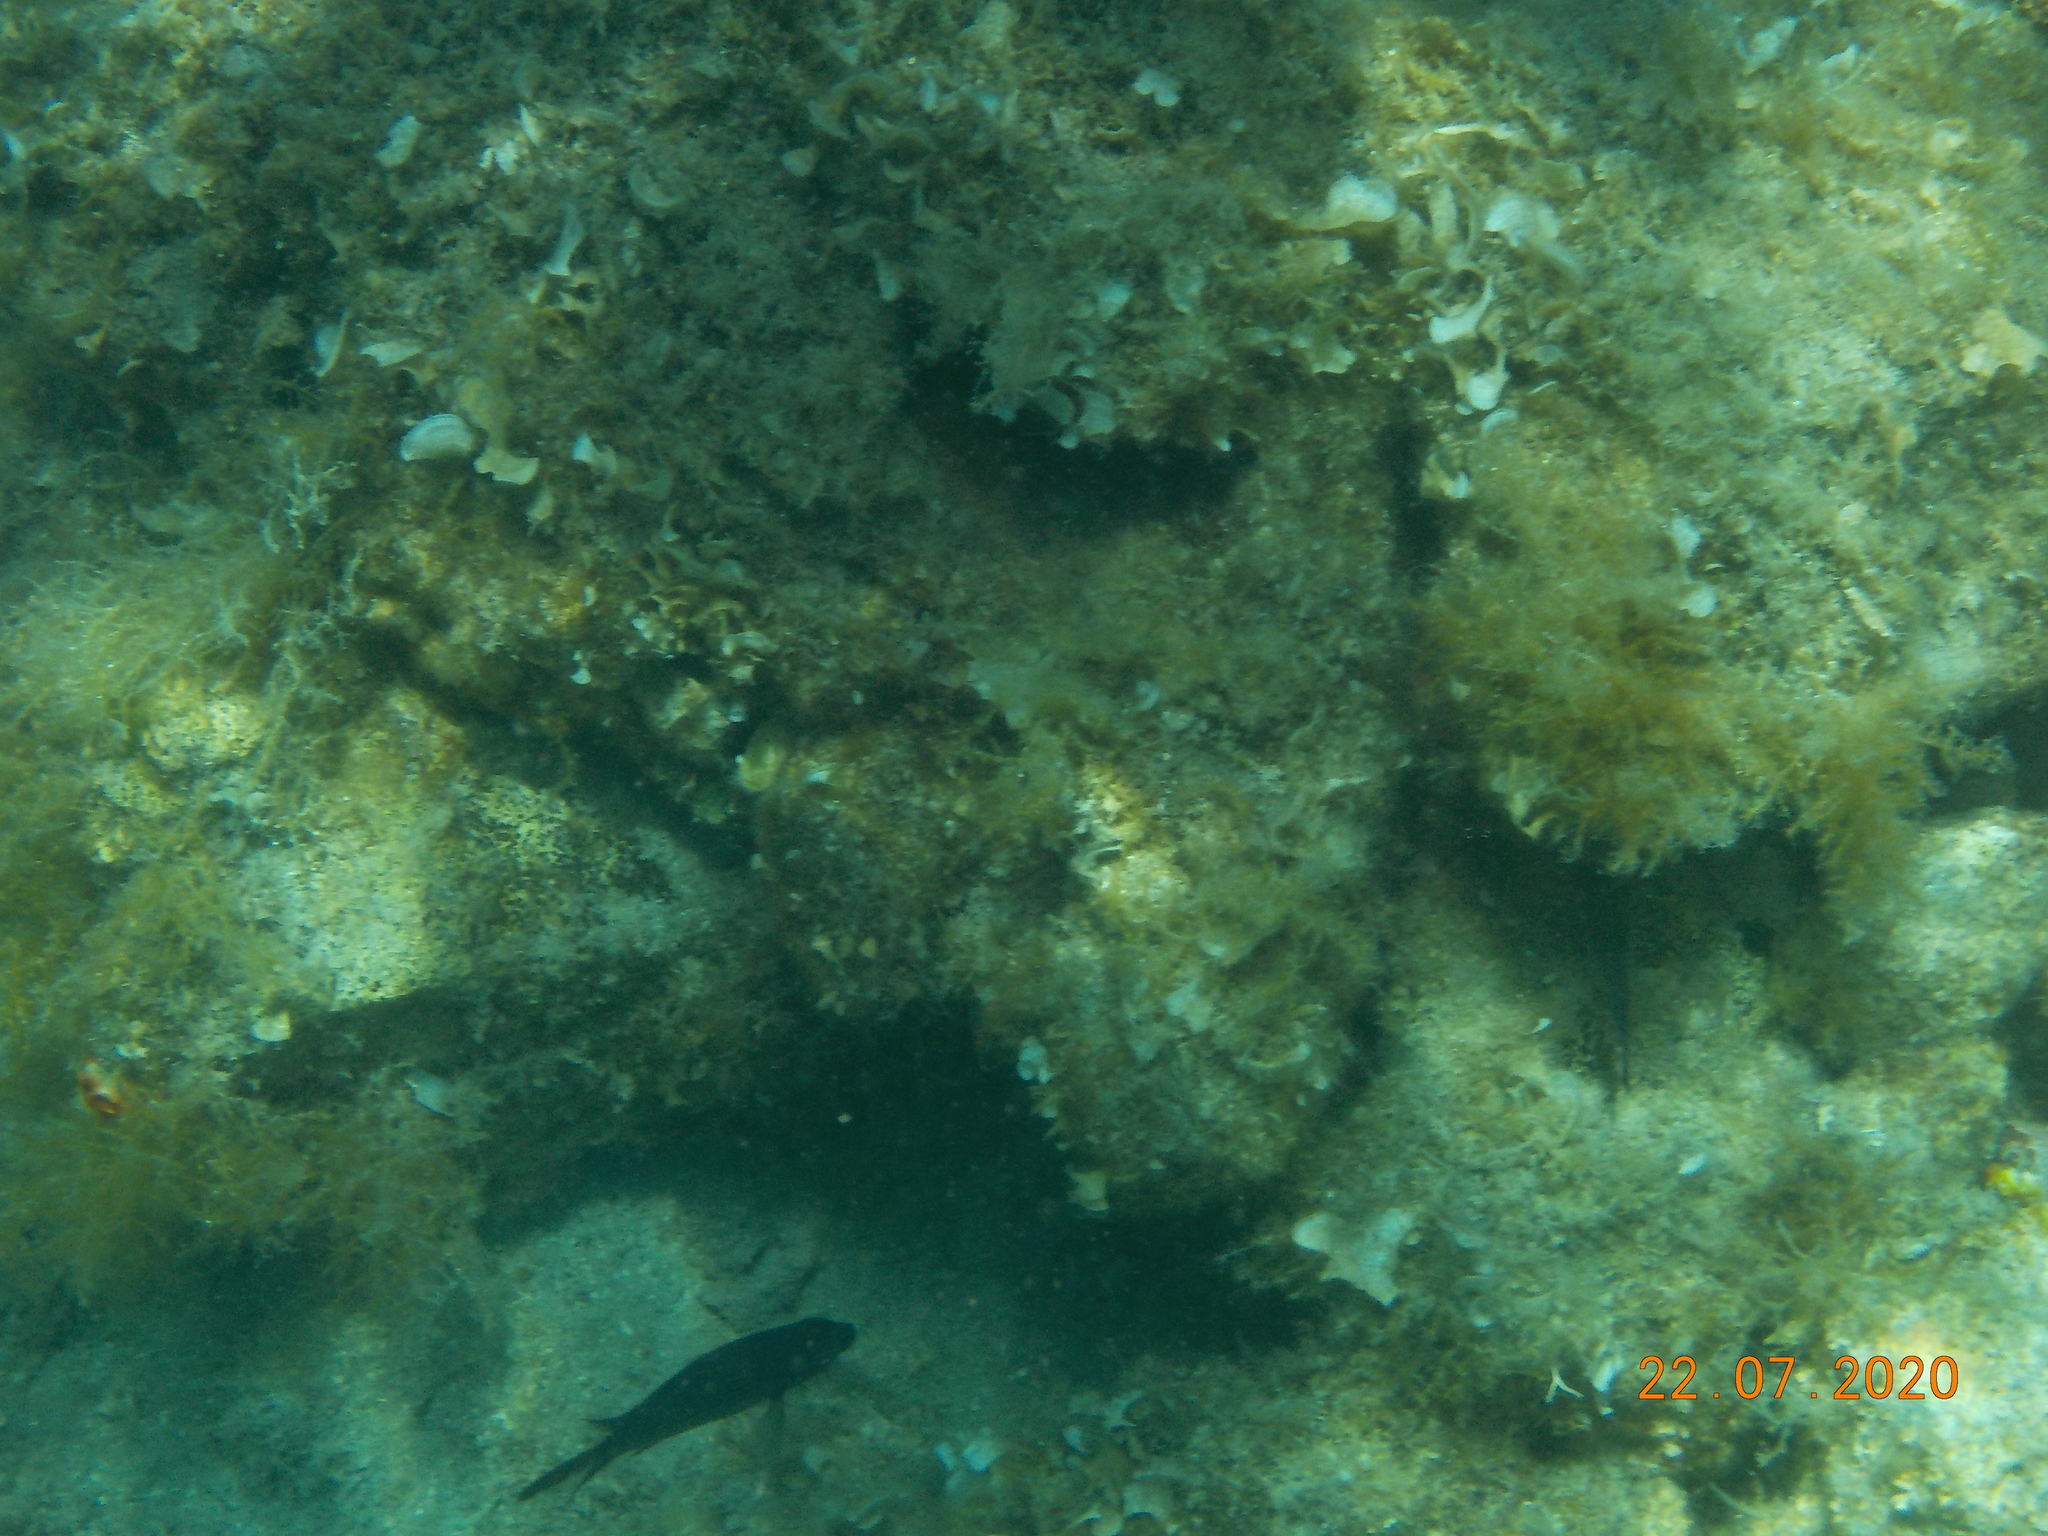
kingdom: Animalia
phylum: Chordata
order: Perciformes
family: Pomacentridae
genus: Chromis
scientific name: Chromis chromis
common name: Damselfish
